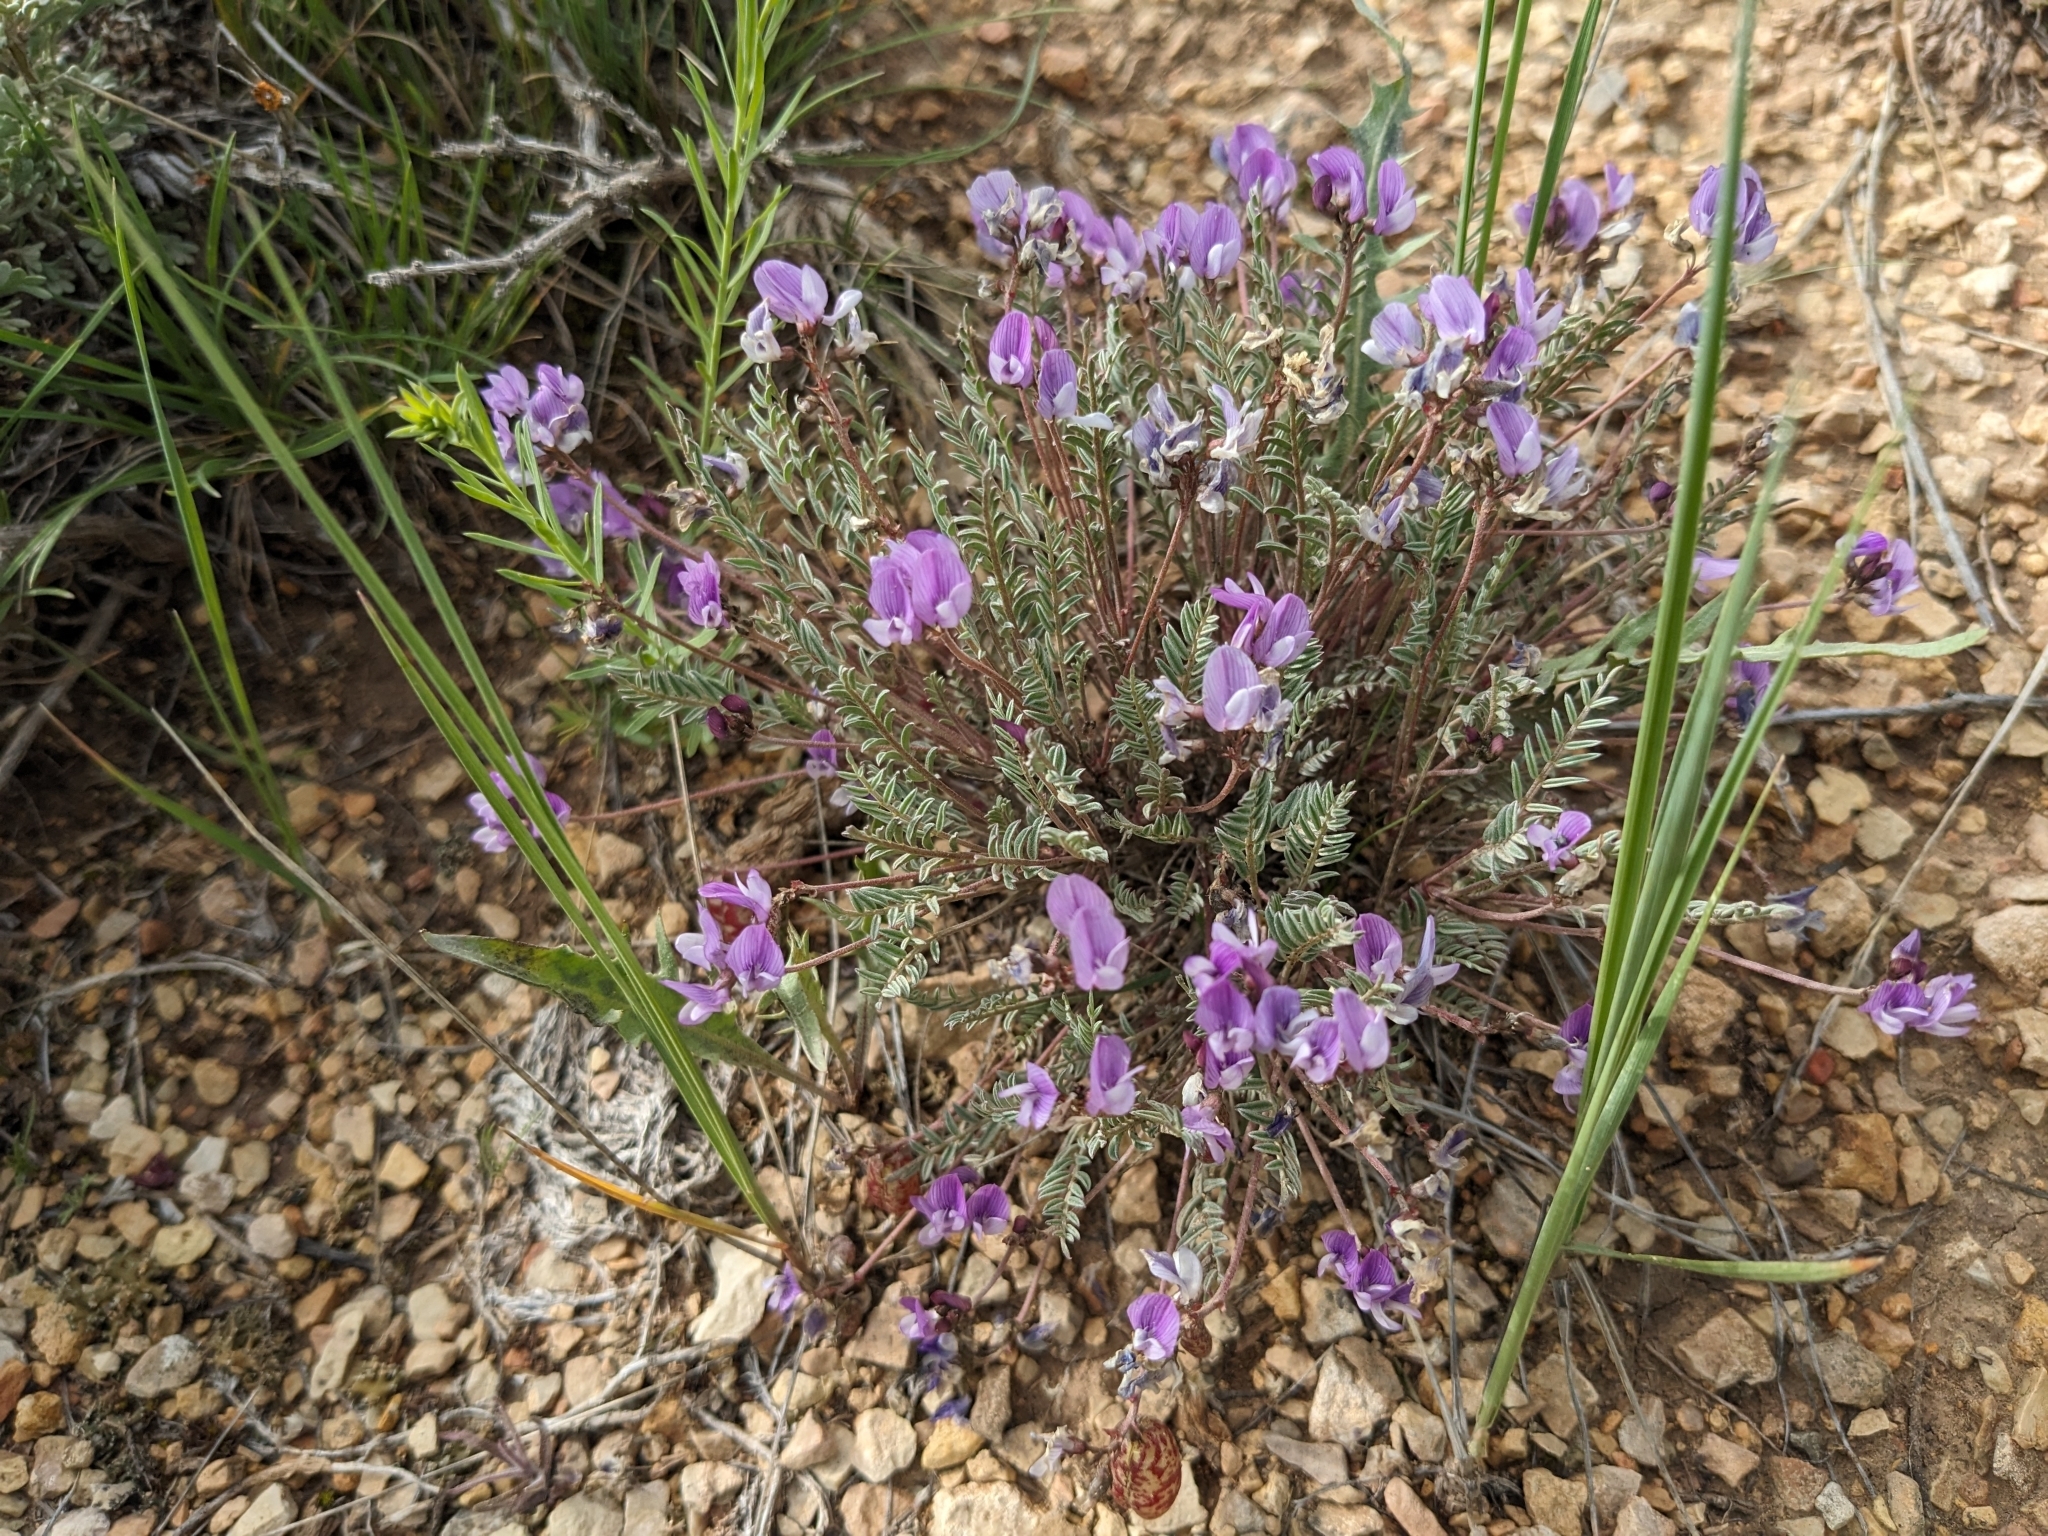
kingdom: Plantae
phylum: Tracheophyta
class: Magnoliopsida
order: Fabales
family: Fabaceae
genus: Astragalus
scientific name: Astragalus jejunus
